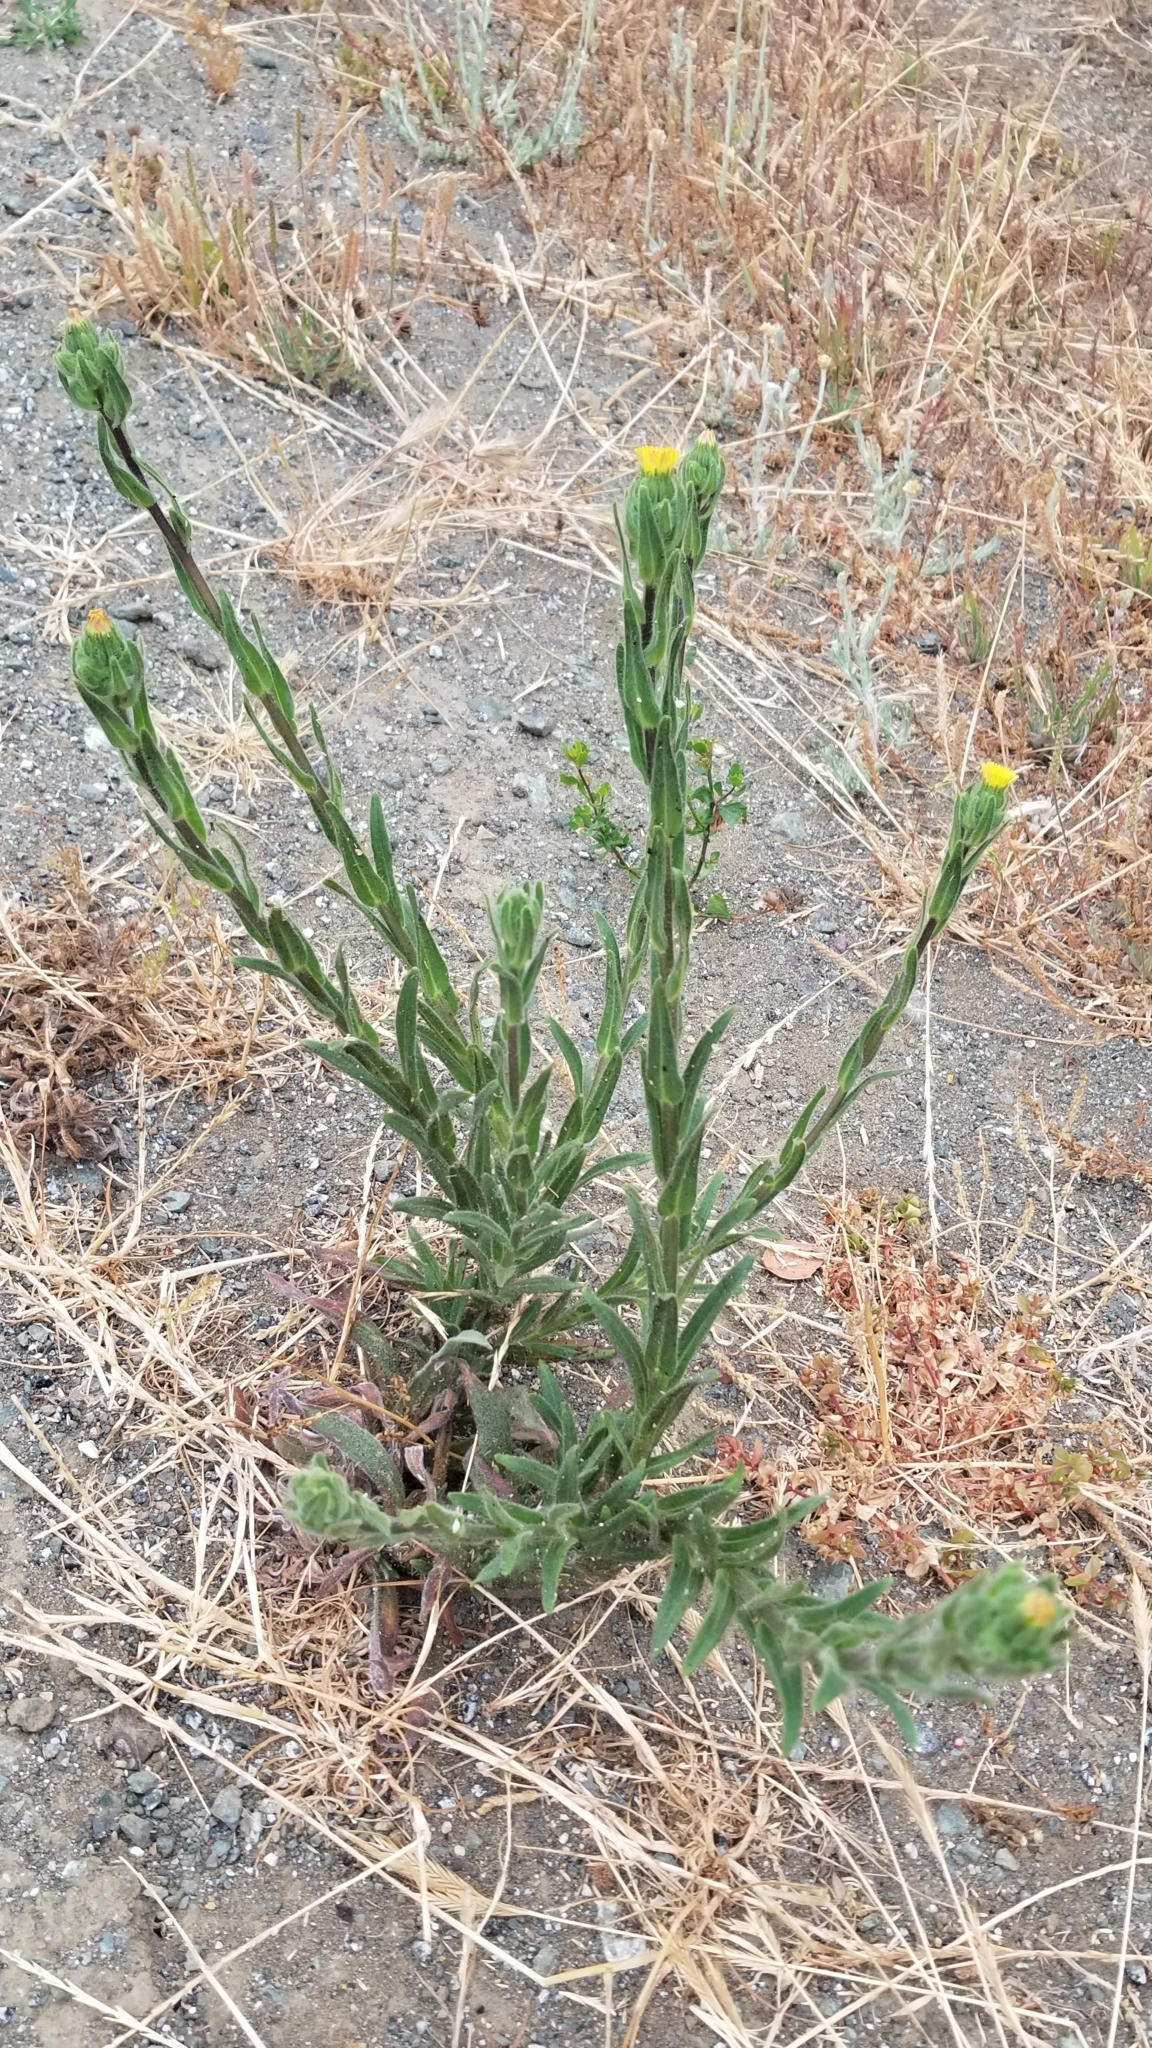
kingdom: Plantae
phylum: Tracheophyta
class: Magnoliopsida
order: Asterales
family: Asteraceae
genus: Madia
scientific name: Madia sativa
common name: Coast tarweed
